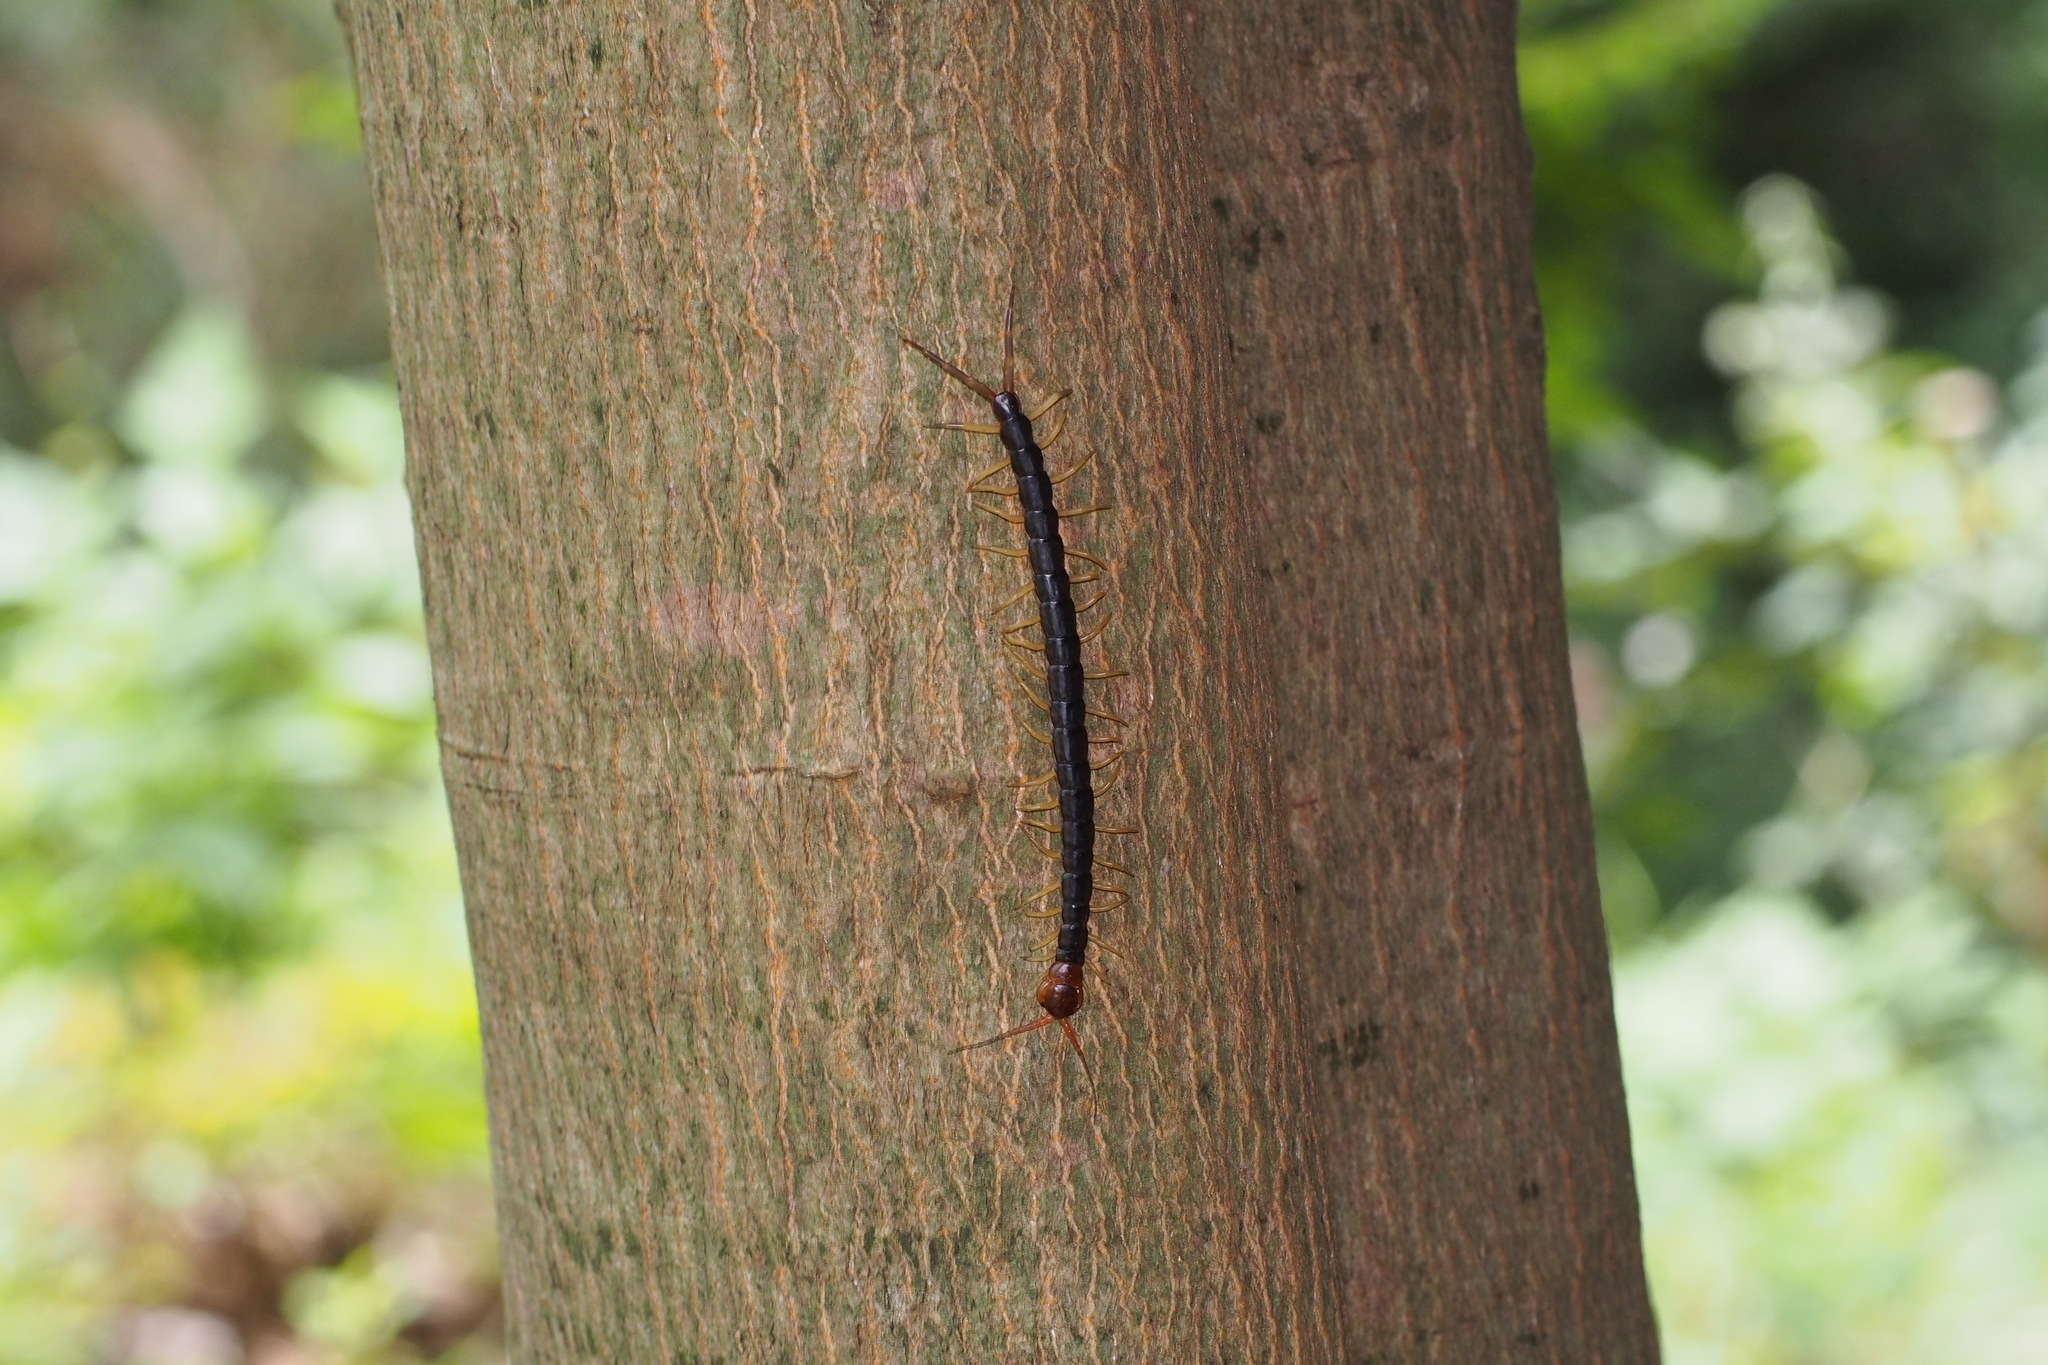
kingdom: Animalia
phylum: Arthropoda
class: Chilopoda
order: Scolopendromorpha
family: Scolopendridae
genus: Scolopendra
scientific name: Scolopendra mutilans
